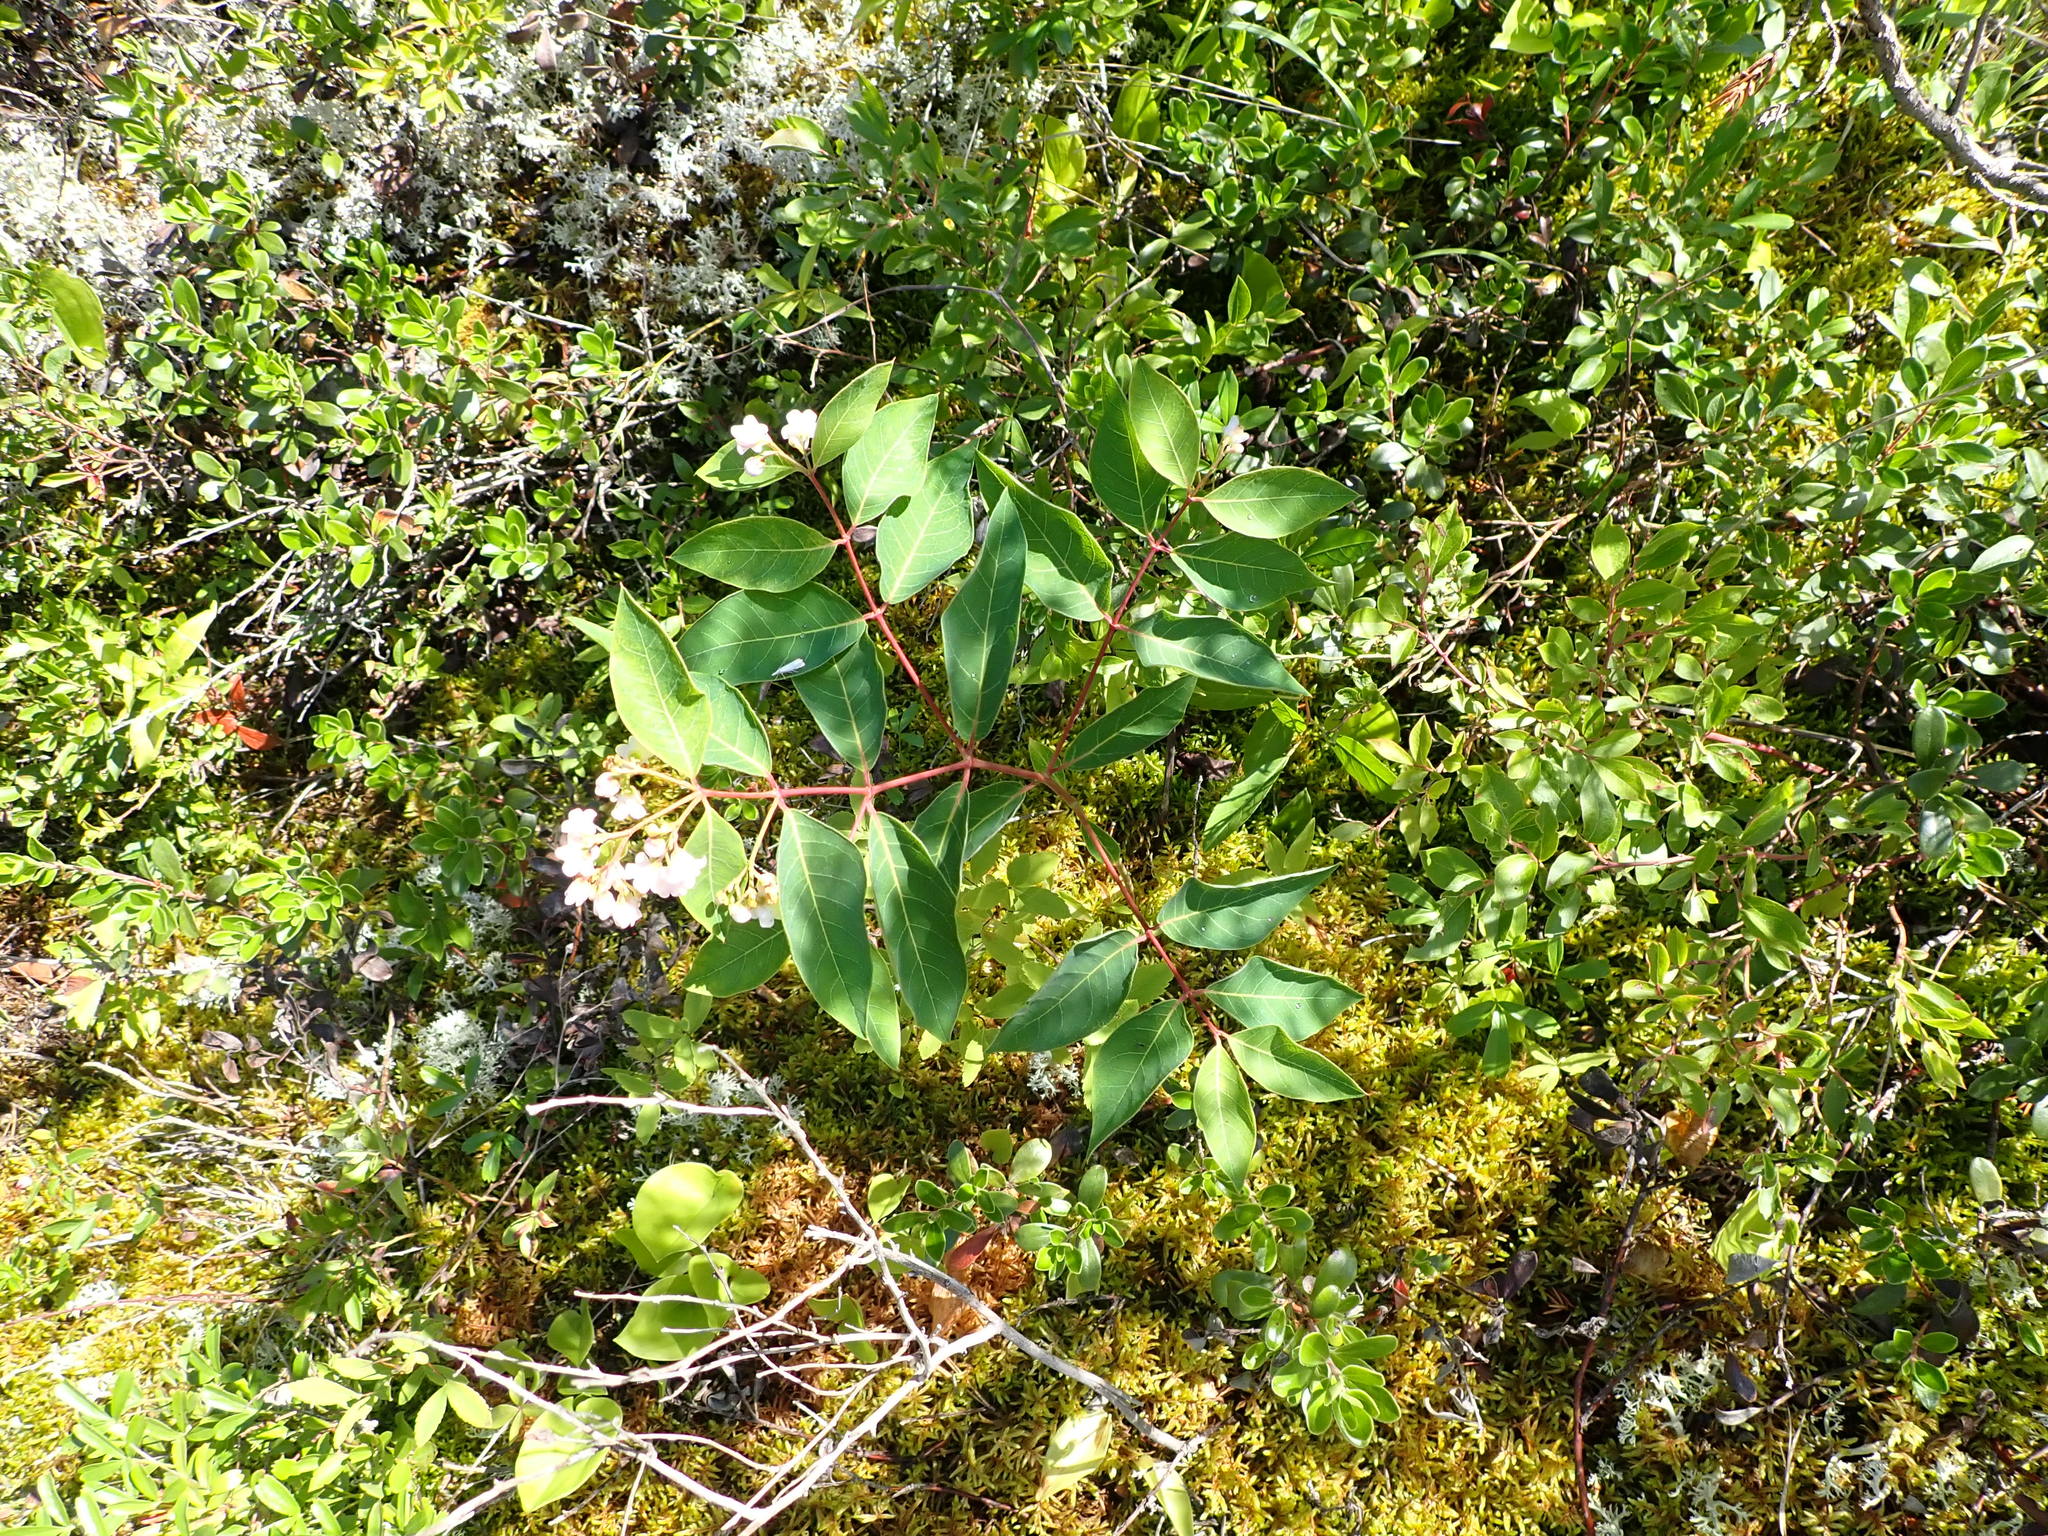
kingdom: Plantae
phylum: Tracheophyta
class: Magnoliopsida
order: Gentianales
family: Apocynaceae
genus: Apocynum
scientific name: Apocynum androsaemifolium
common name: Spreading dogbane
